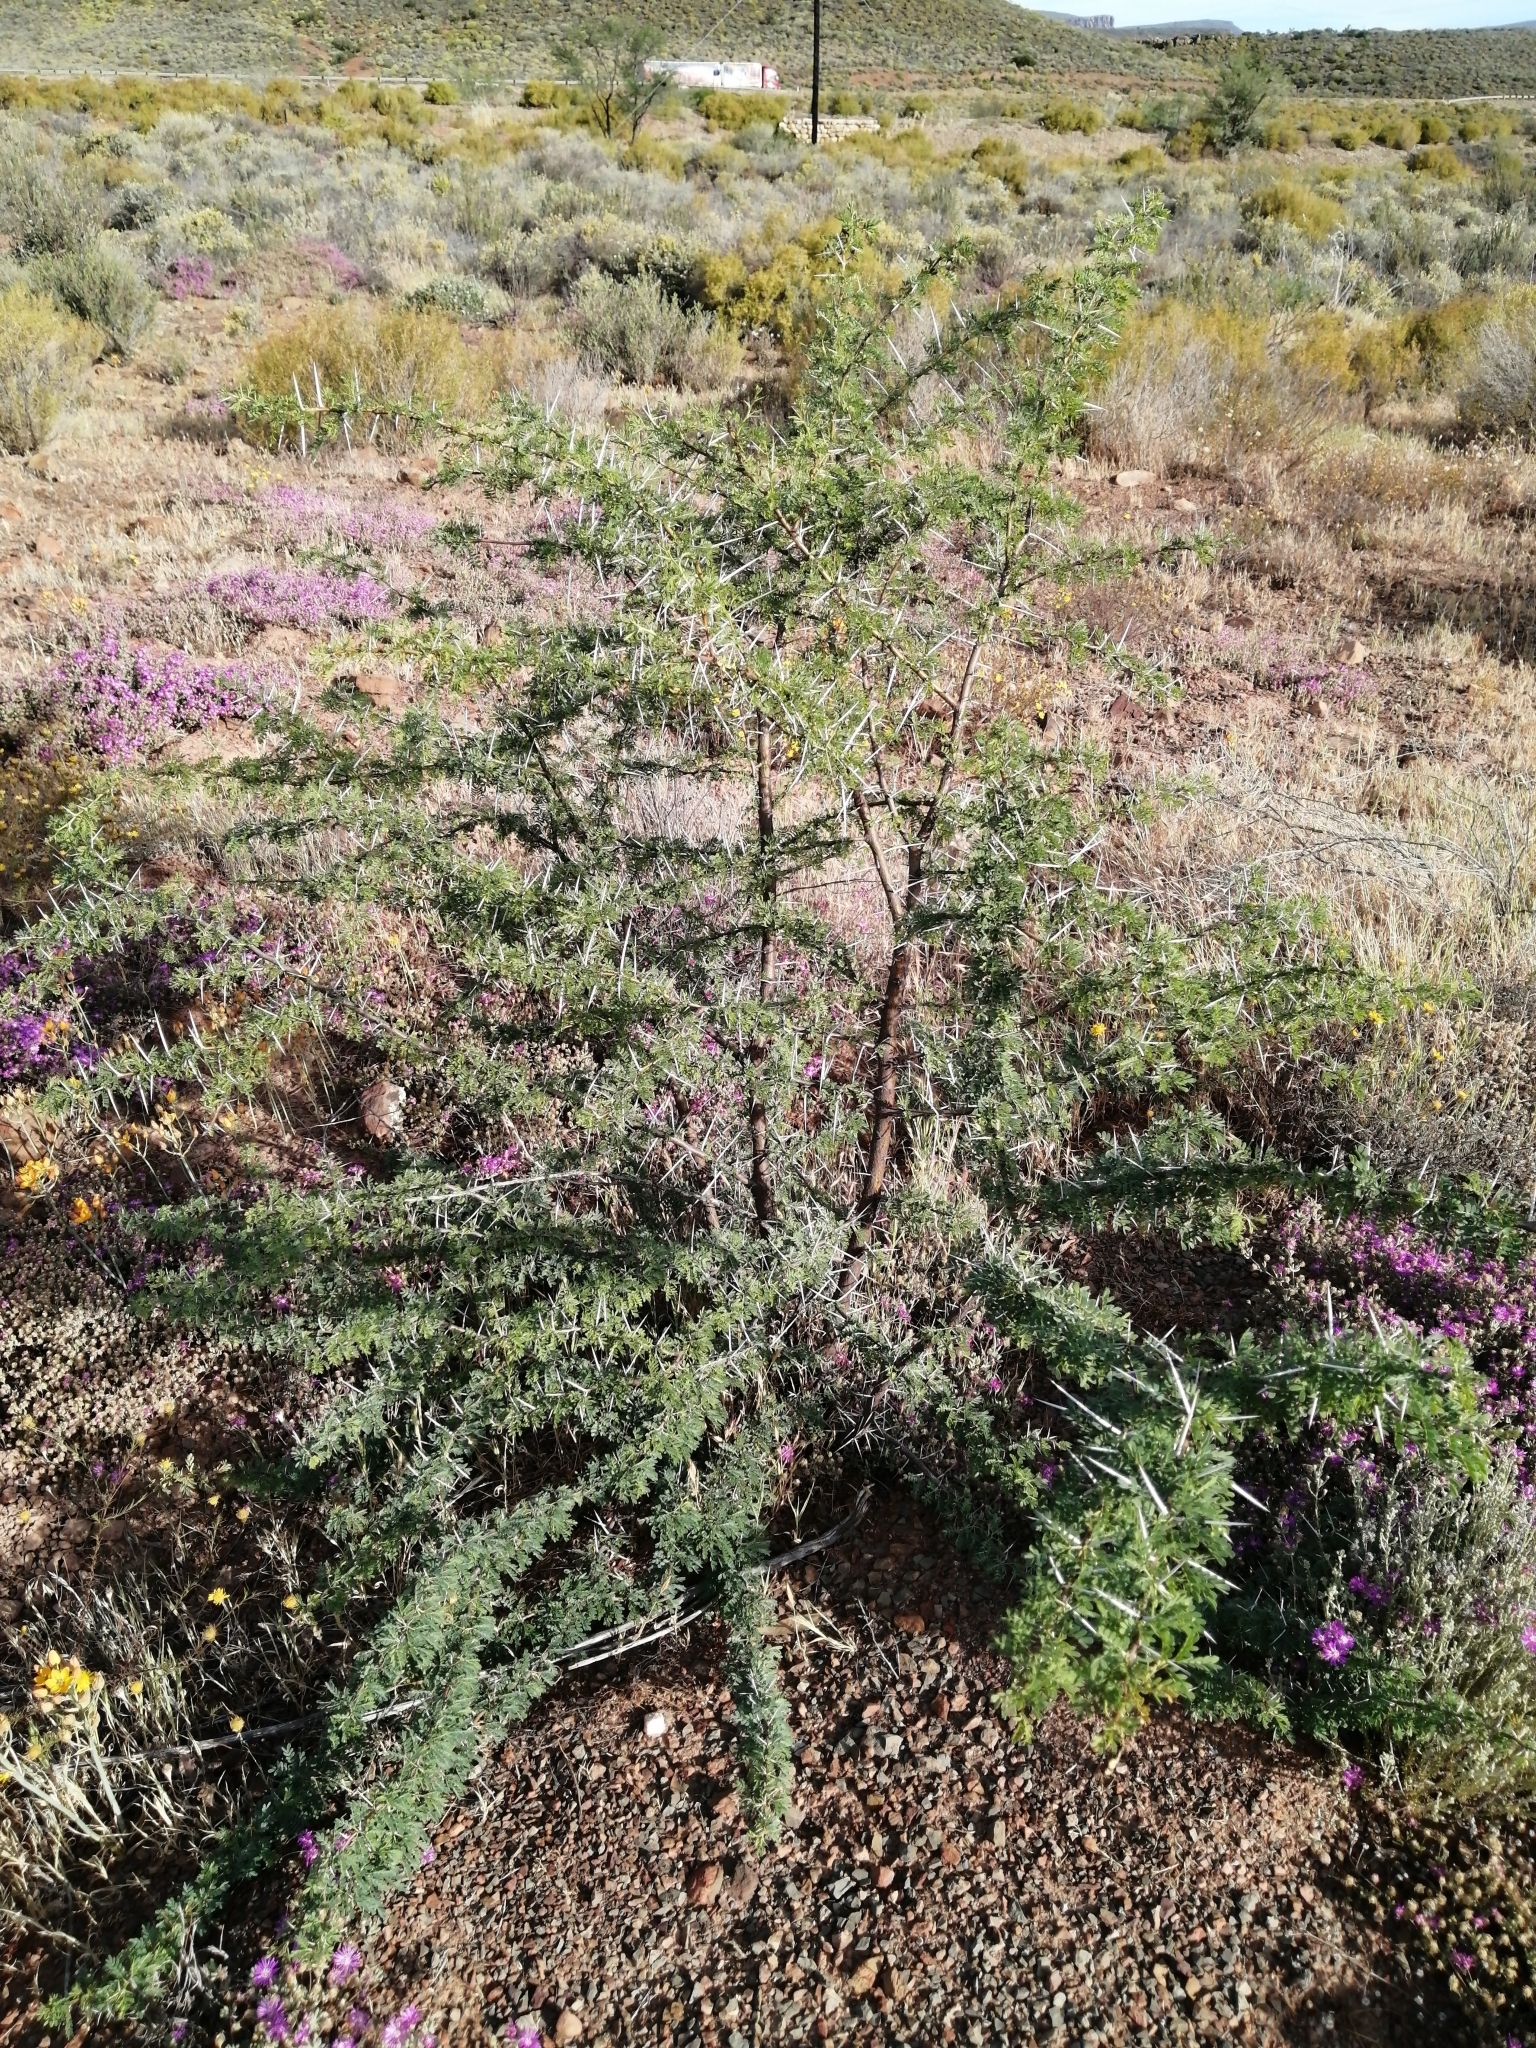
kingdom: Plantae
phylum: Tracheophyta
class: Magnoliopsida
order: Fabales
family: Fabaceae
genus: Vachellia
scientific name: Vachellia karroo
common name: Sweet thorn
